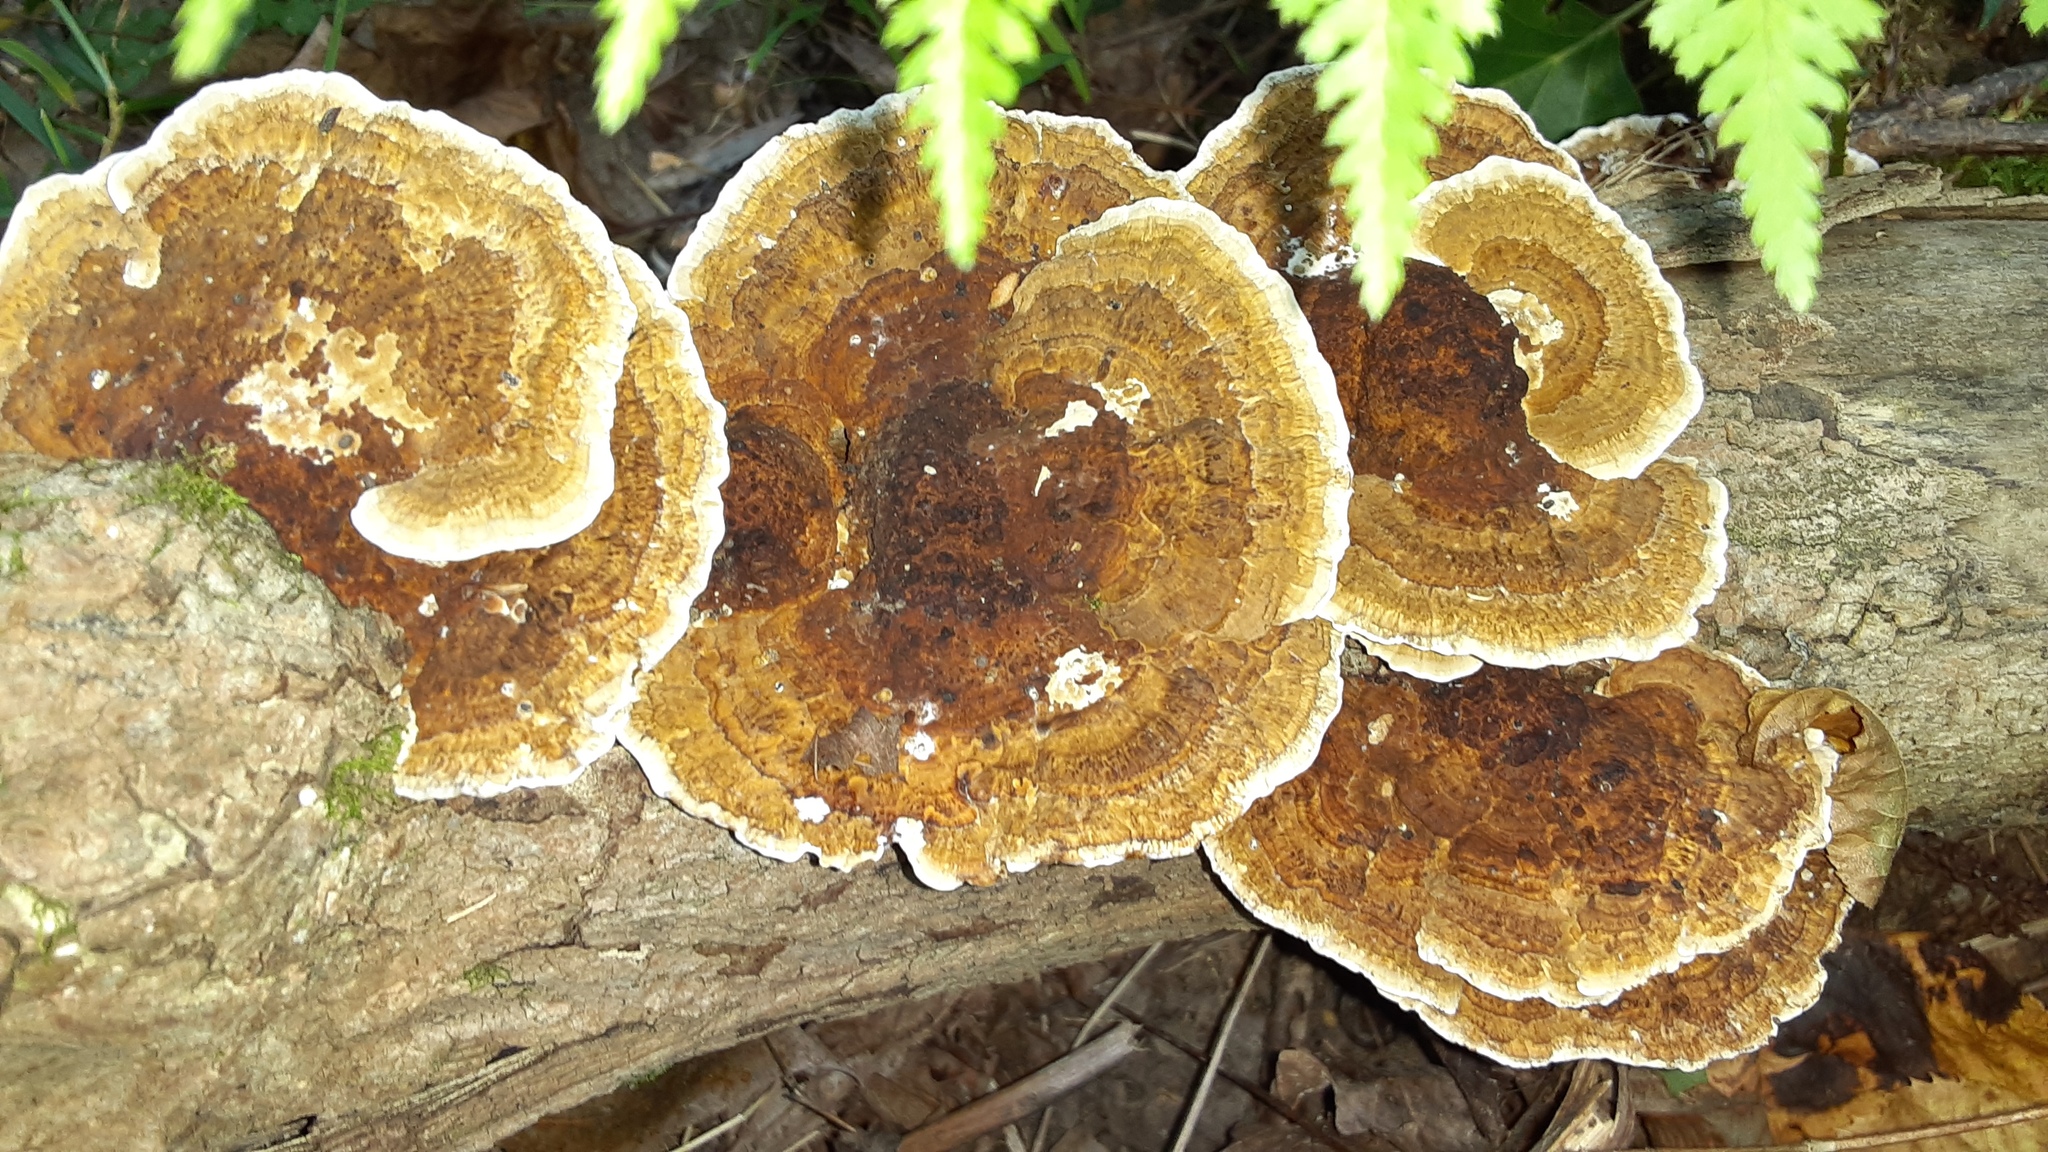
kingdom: Fungi
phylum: Basidiomycota
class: Agaricomycetes
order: Polyporales
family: Polyporaceae
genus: Daedaleopsis
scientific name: Daedaleopsis confragosa
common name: Blushing bracket
